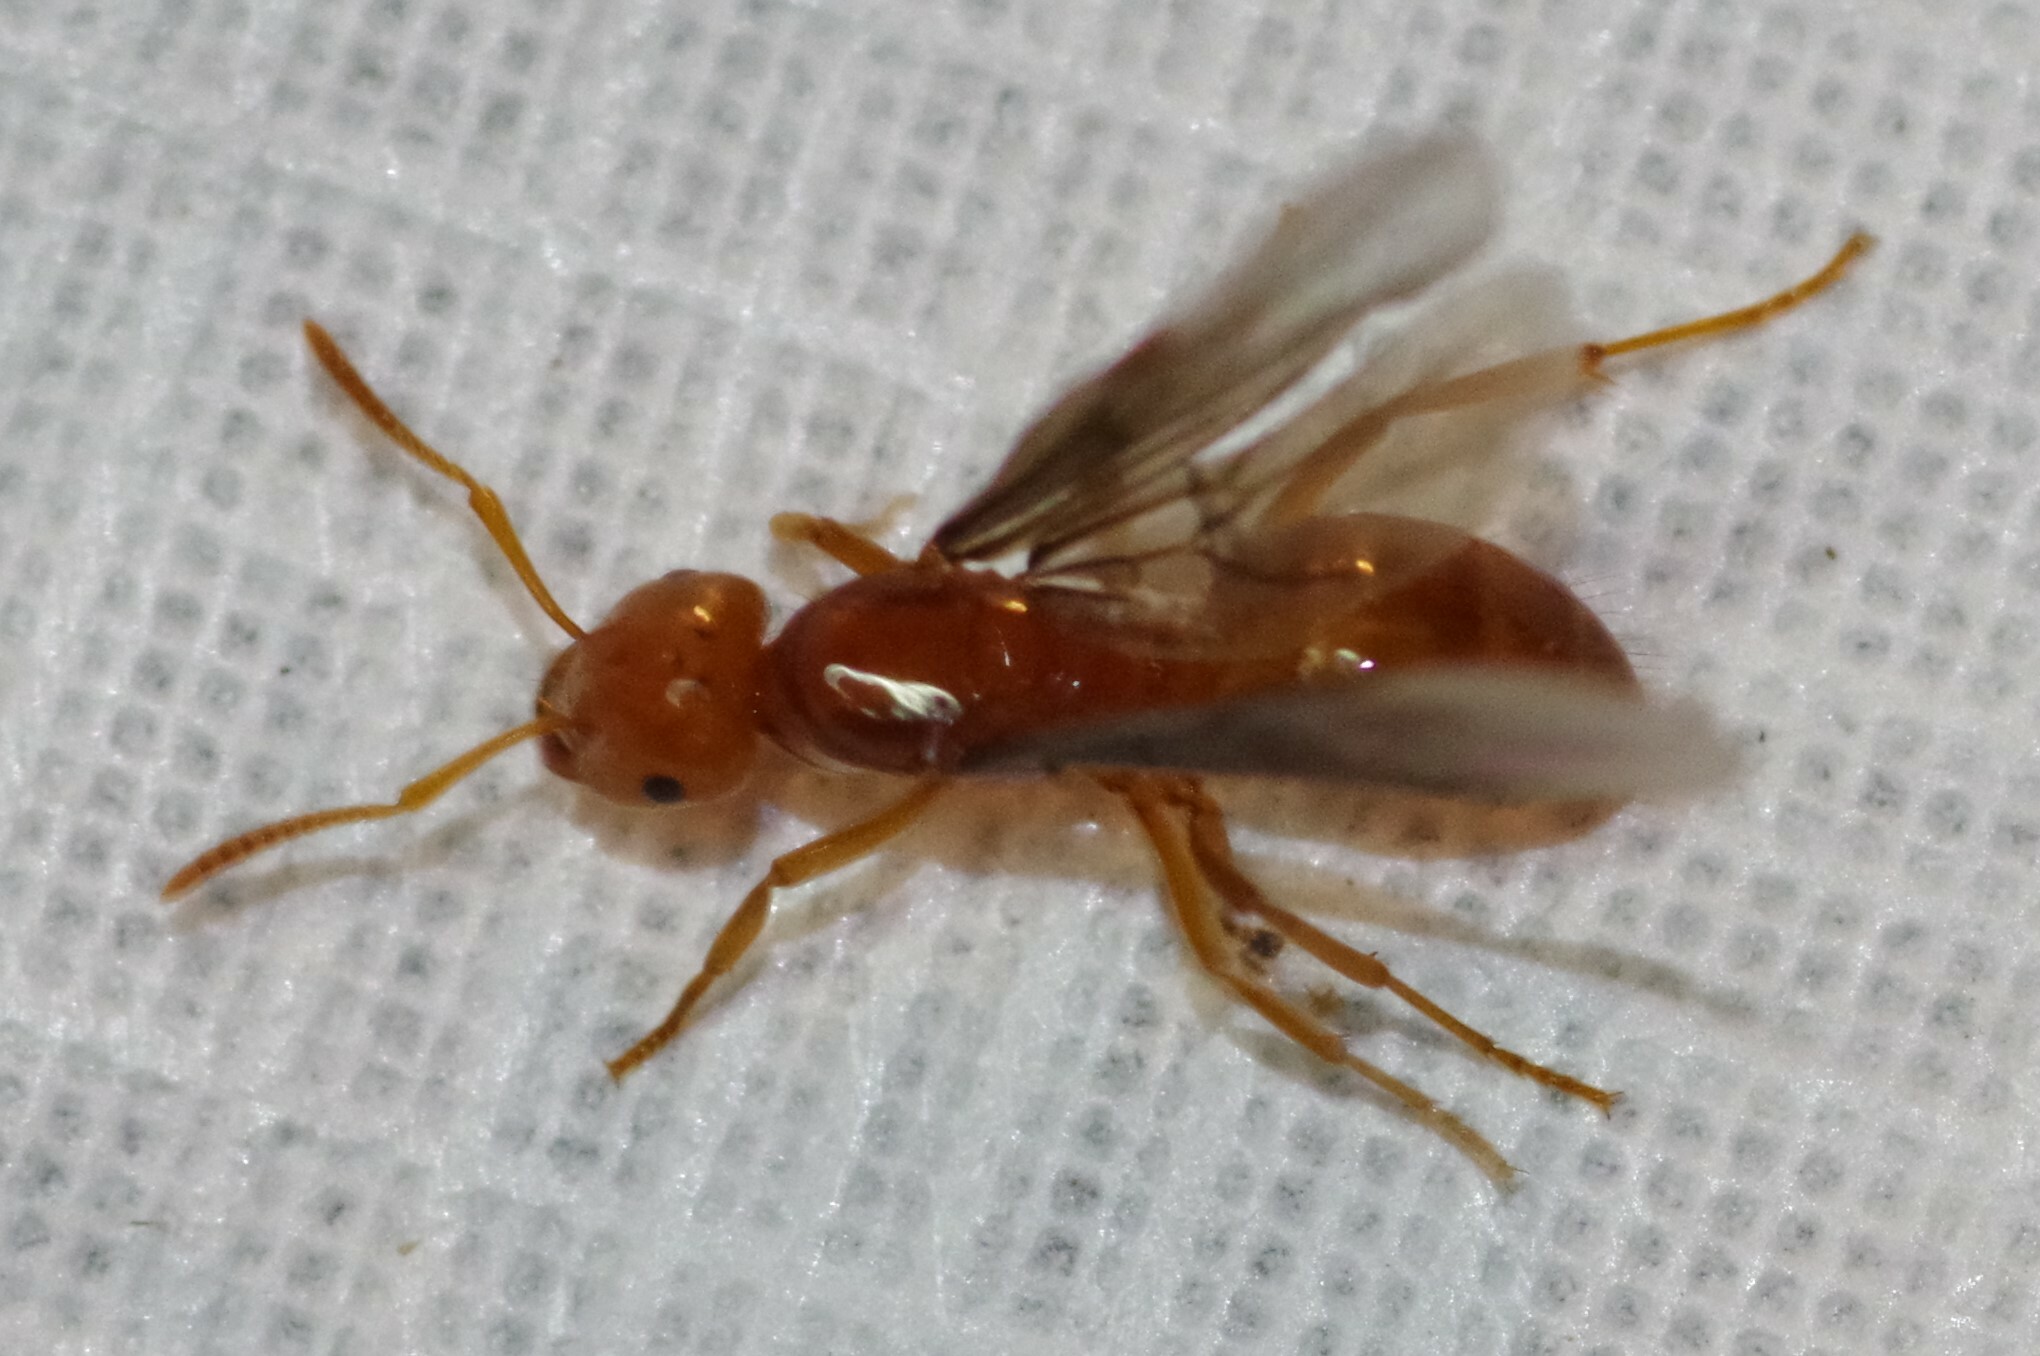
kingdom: Animalia
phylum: Arthropoda
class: Insecta
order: Hymenoptera
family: Formicidae
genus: Acanthomyops
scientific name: Acanthomyops interjectus
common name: Larger yellow ant
